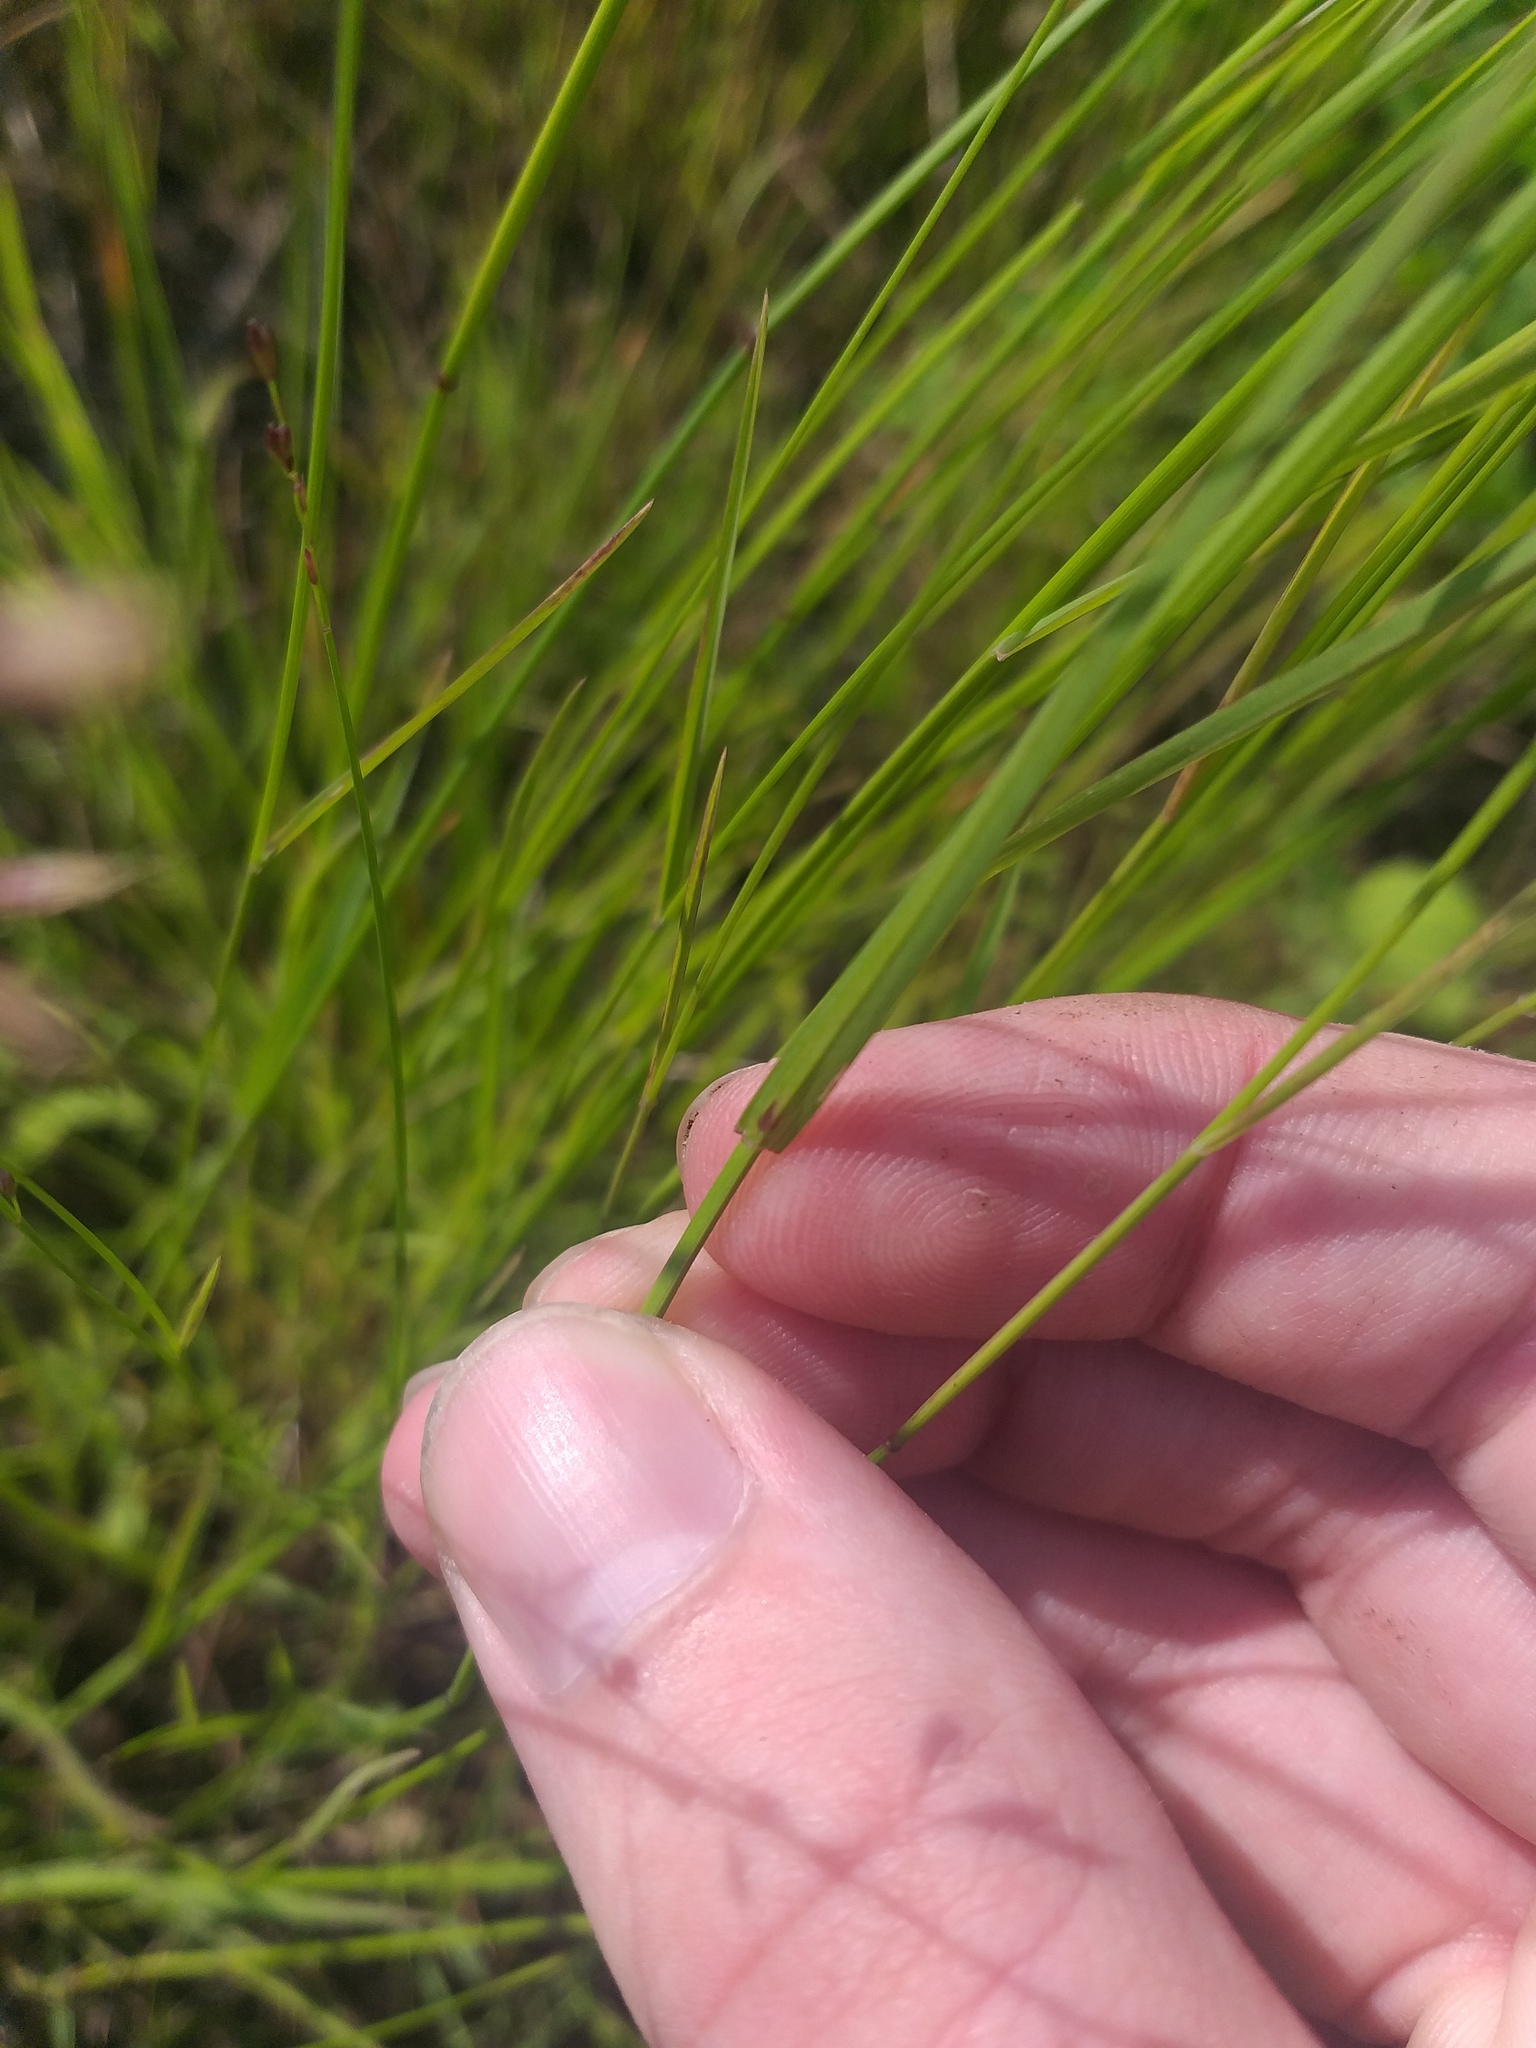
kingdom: Plantae
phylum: Tracheophyta
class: Liliopsida
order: Poales
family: Poaceae
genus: Poa
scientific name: Poa compressa
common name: Canada bluegrass
